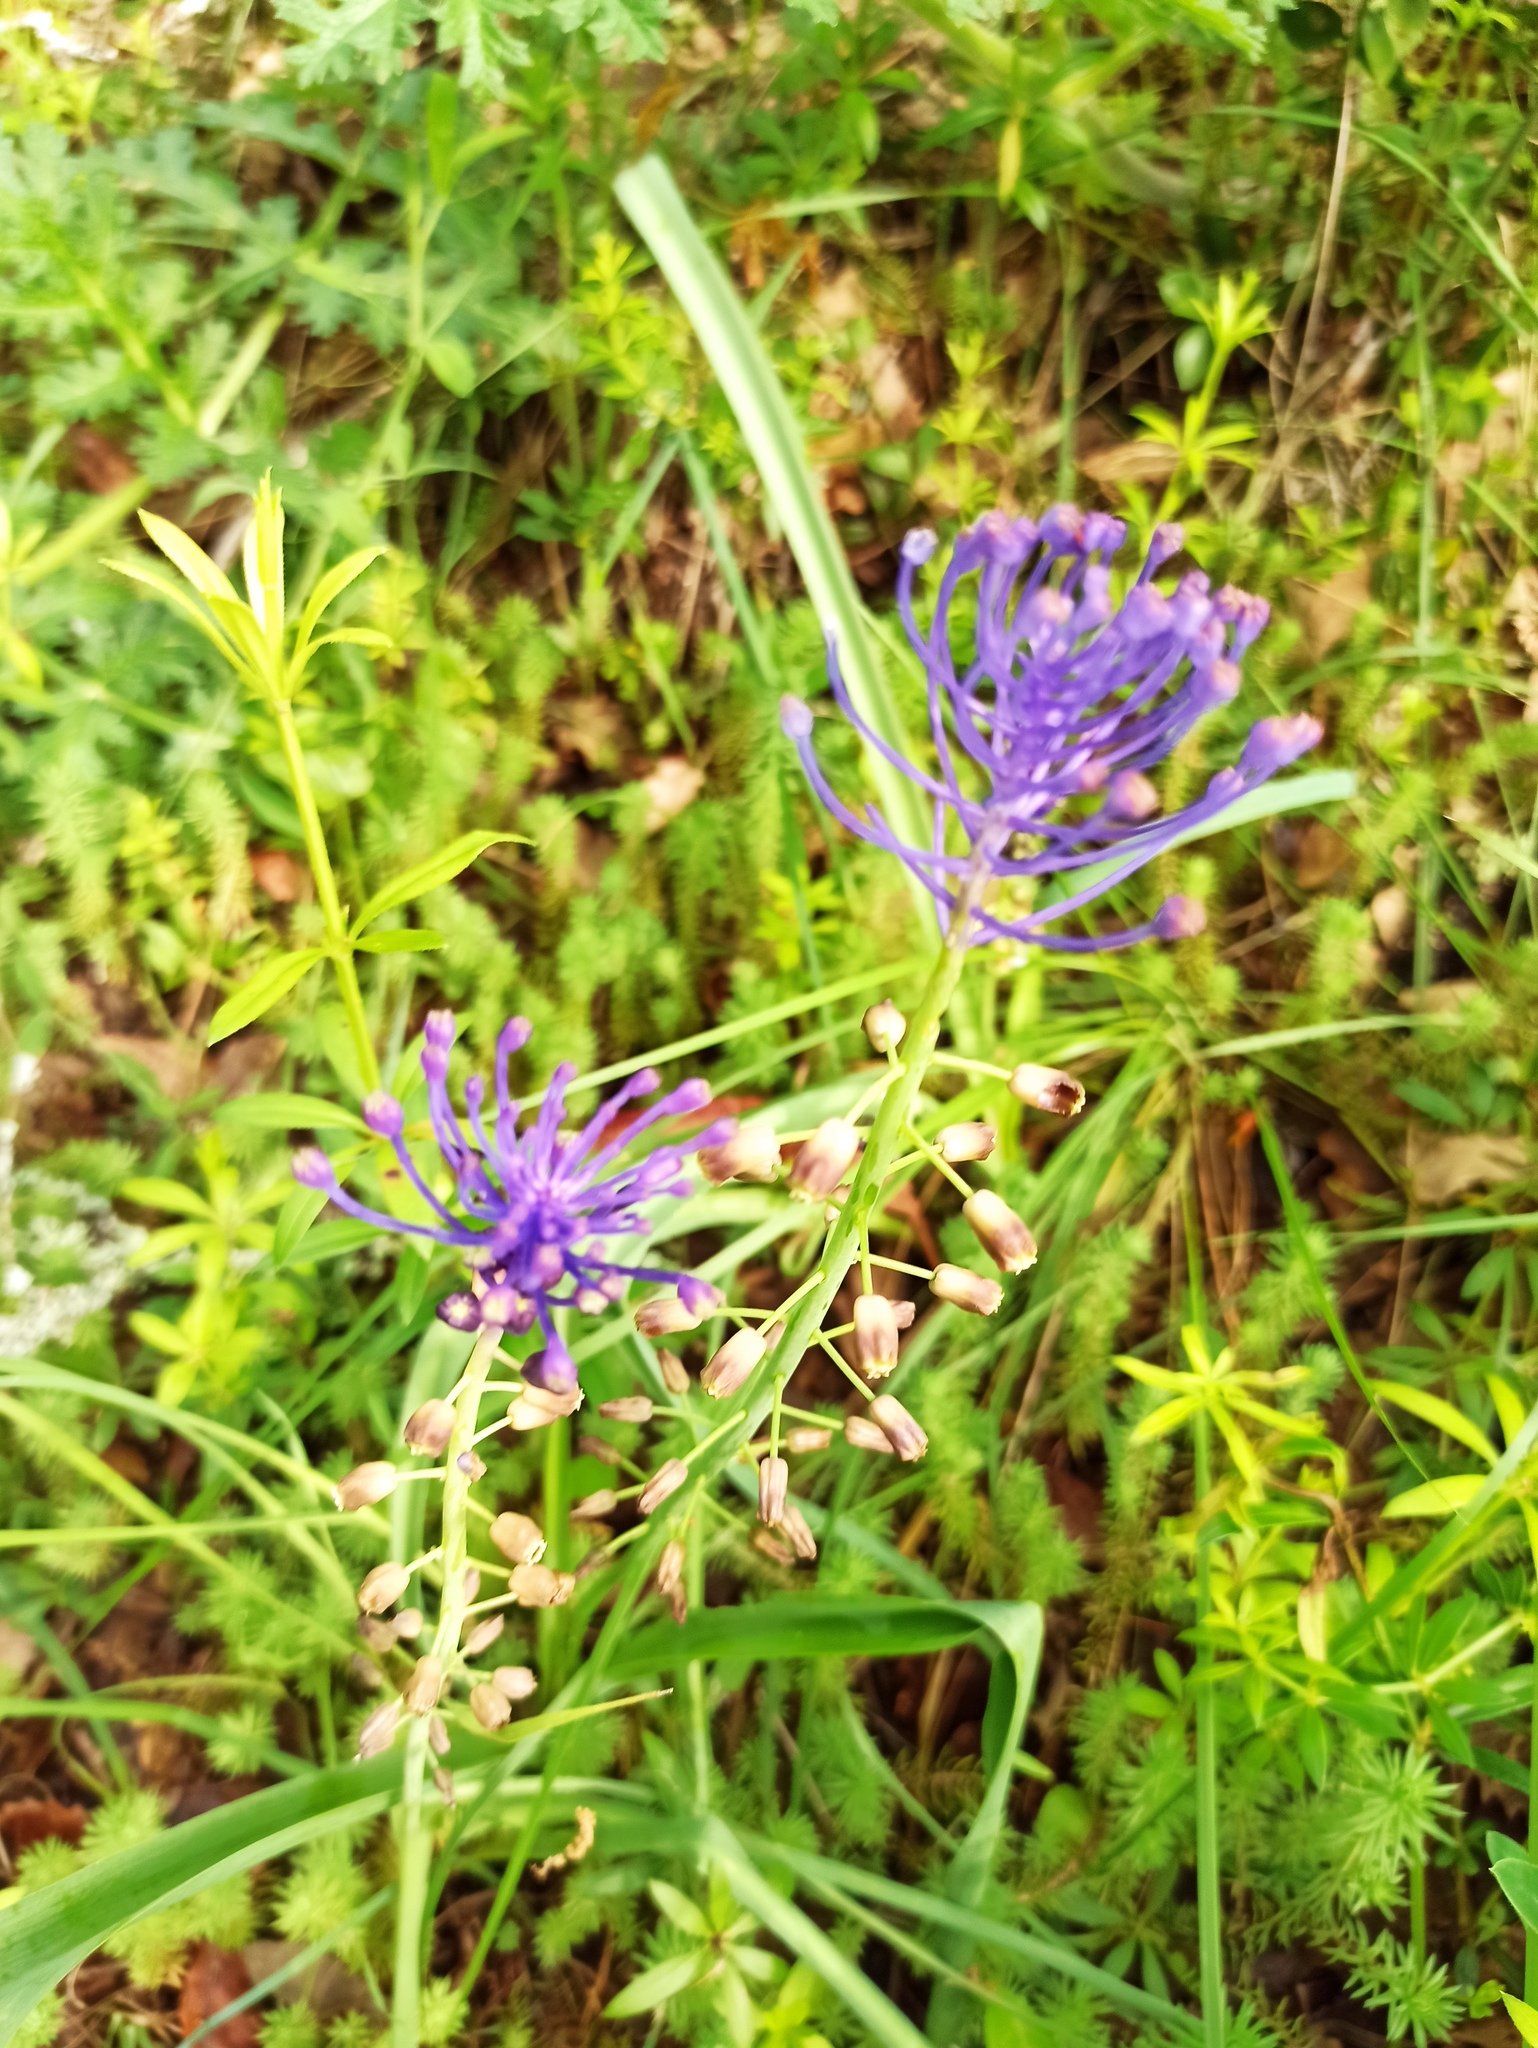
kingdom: Plantae
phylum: Tracheophyta
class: Liliopsida
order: Asparagales
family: Asparagaceae
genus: Muscari
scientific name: Muscari comosum
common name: Tassel hyacinth
